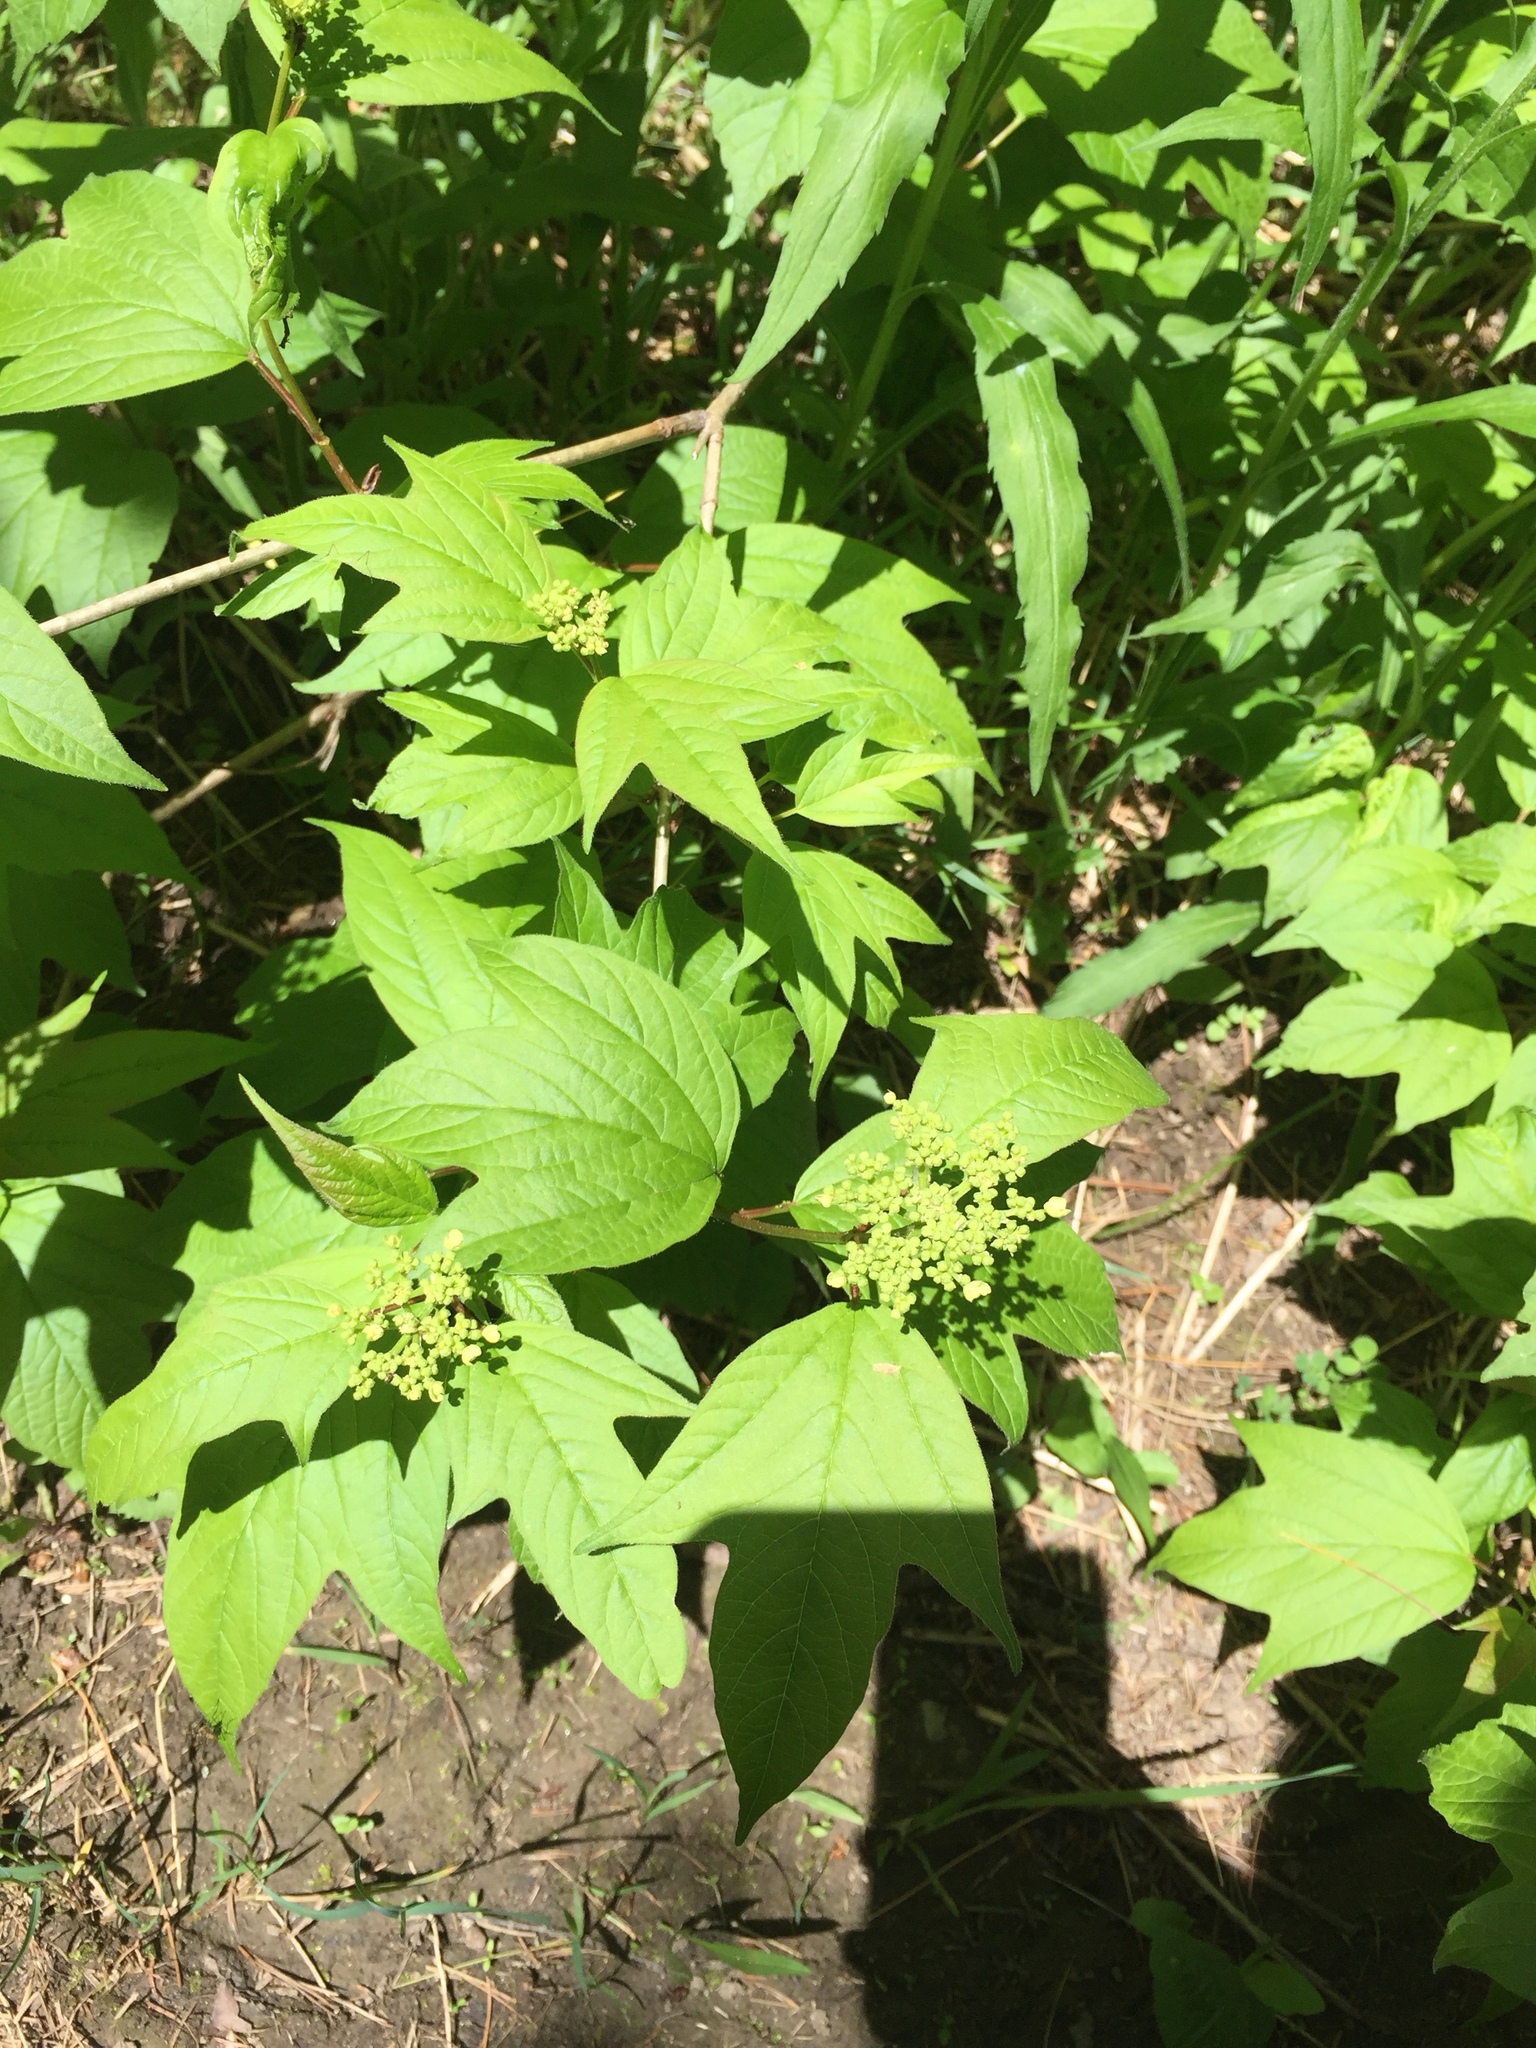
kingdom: Plantae
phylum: Tracheophyta
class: Magnoliopsida
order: Dipsacales
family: Viburnaceae
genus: Viburnum
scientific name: Viburnum opulus
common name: Guelder-rose
